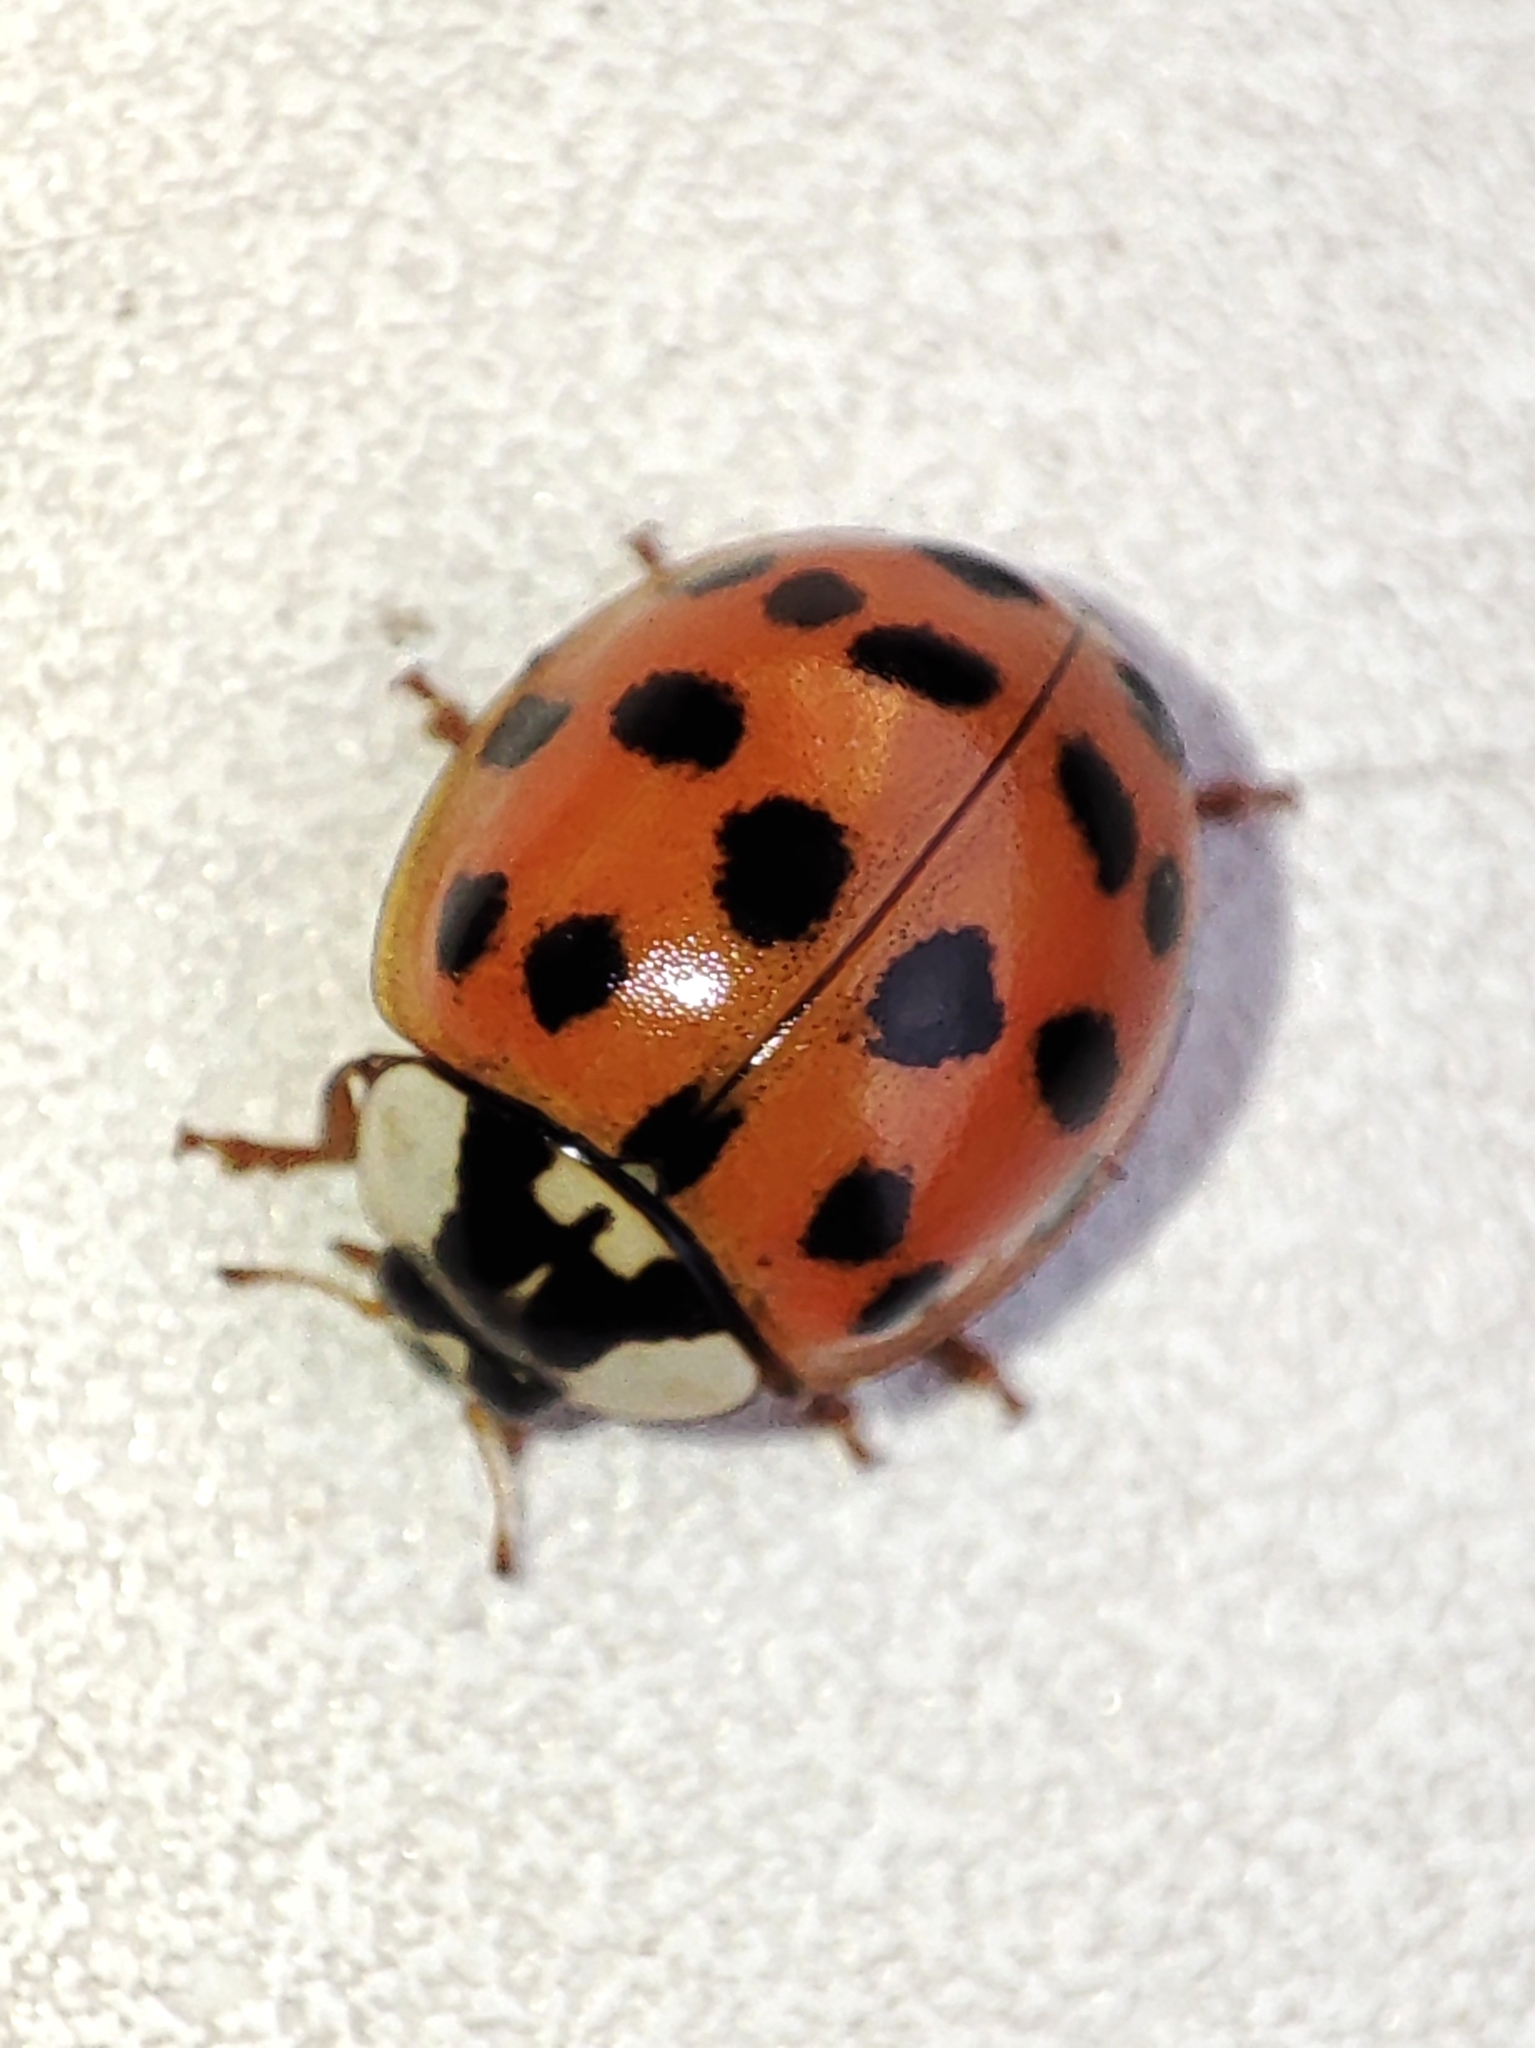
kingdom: Animalia
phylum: Arthropoda
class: Insecta
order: Coleoptera
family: Coccinellidae
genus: Harmonia
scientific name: Harmonia axyridis
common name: Harlequin ladybird
